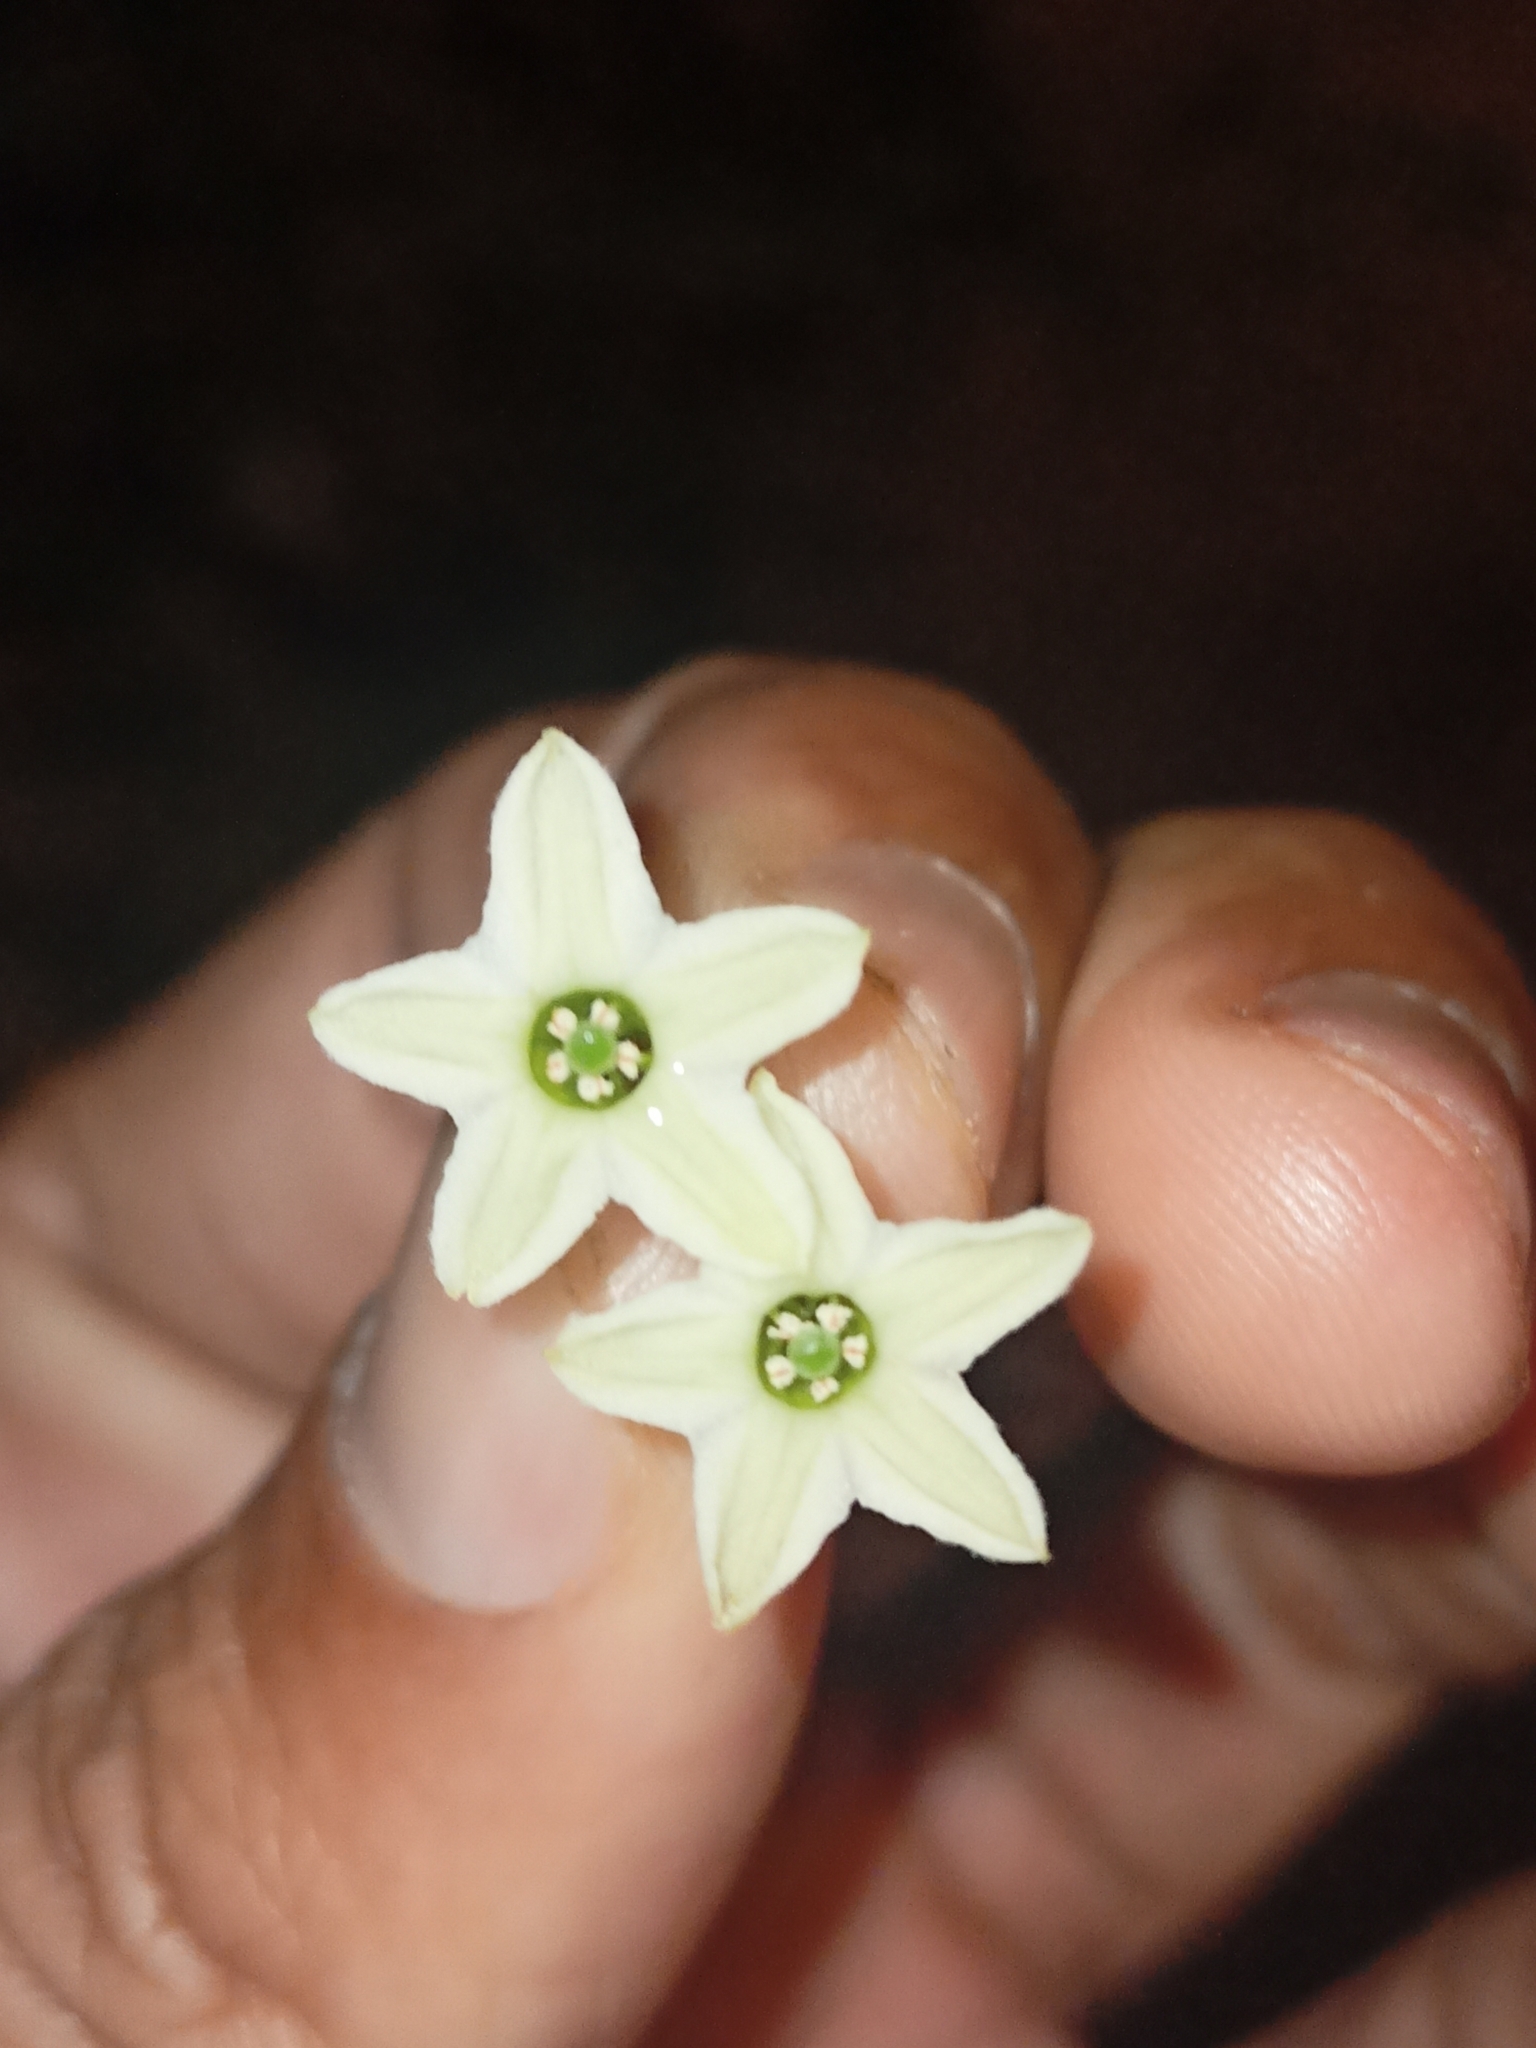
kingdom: Plantae
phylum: Tracheophyta
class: Magnoliopsida
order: Solanales
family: Solanaceae
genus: Cestrum
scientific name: Cestrum nocturnum
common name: Night jessamine
